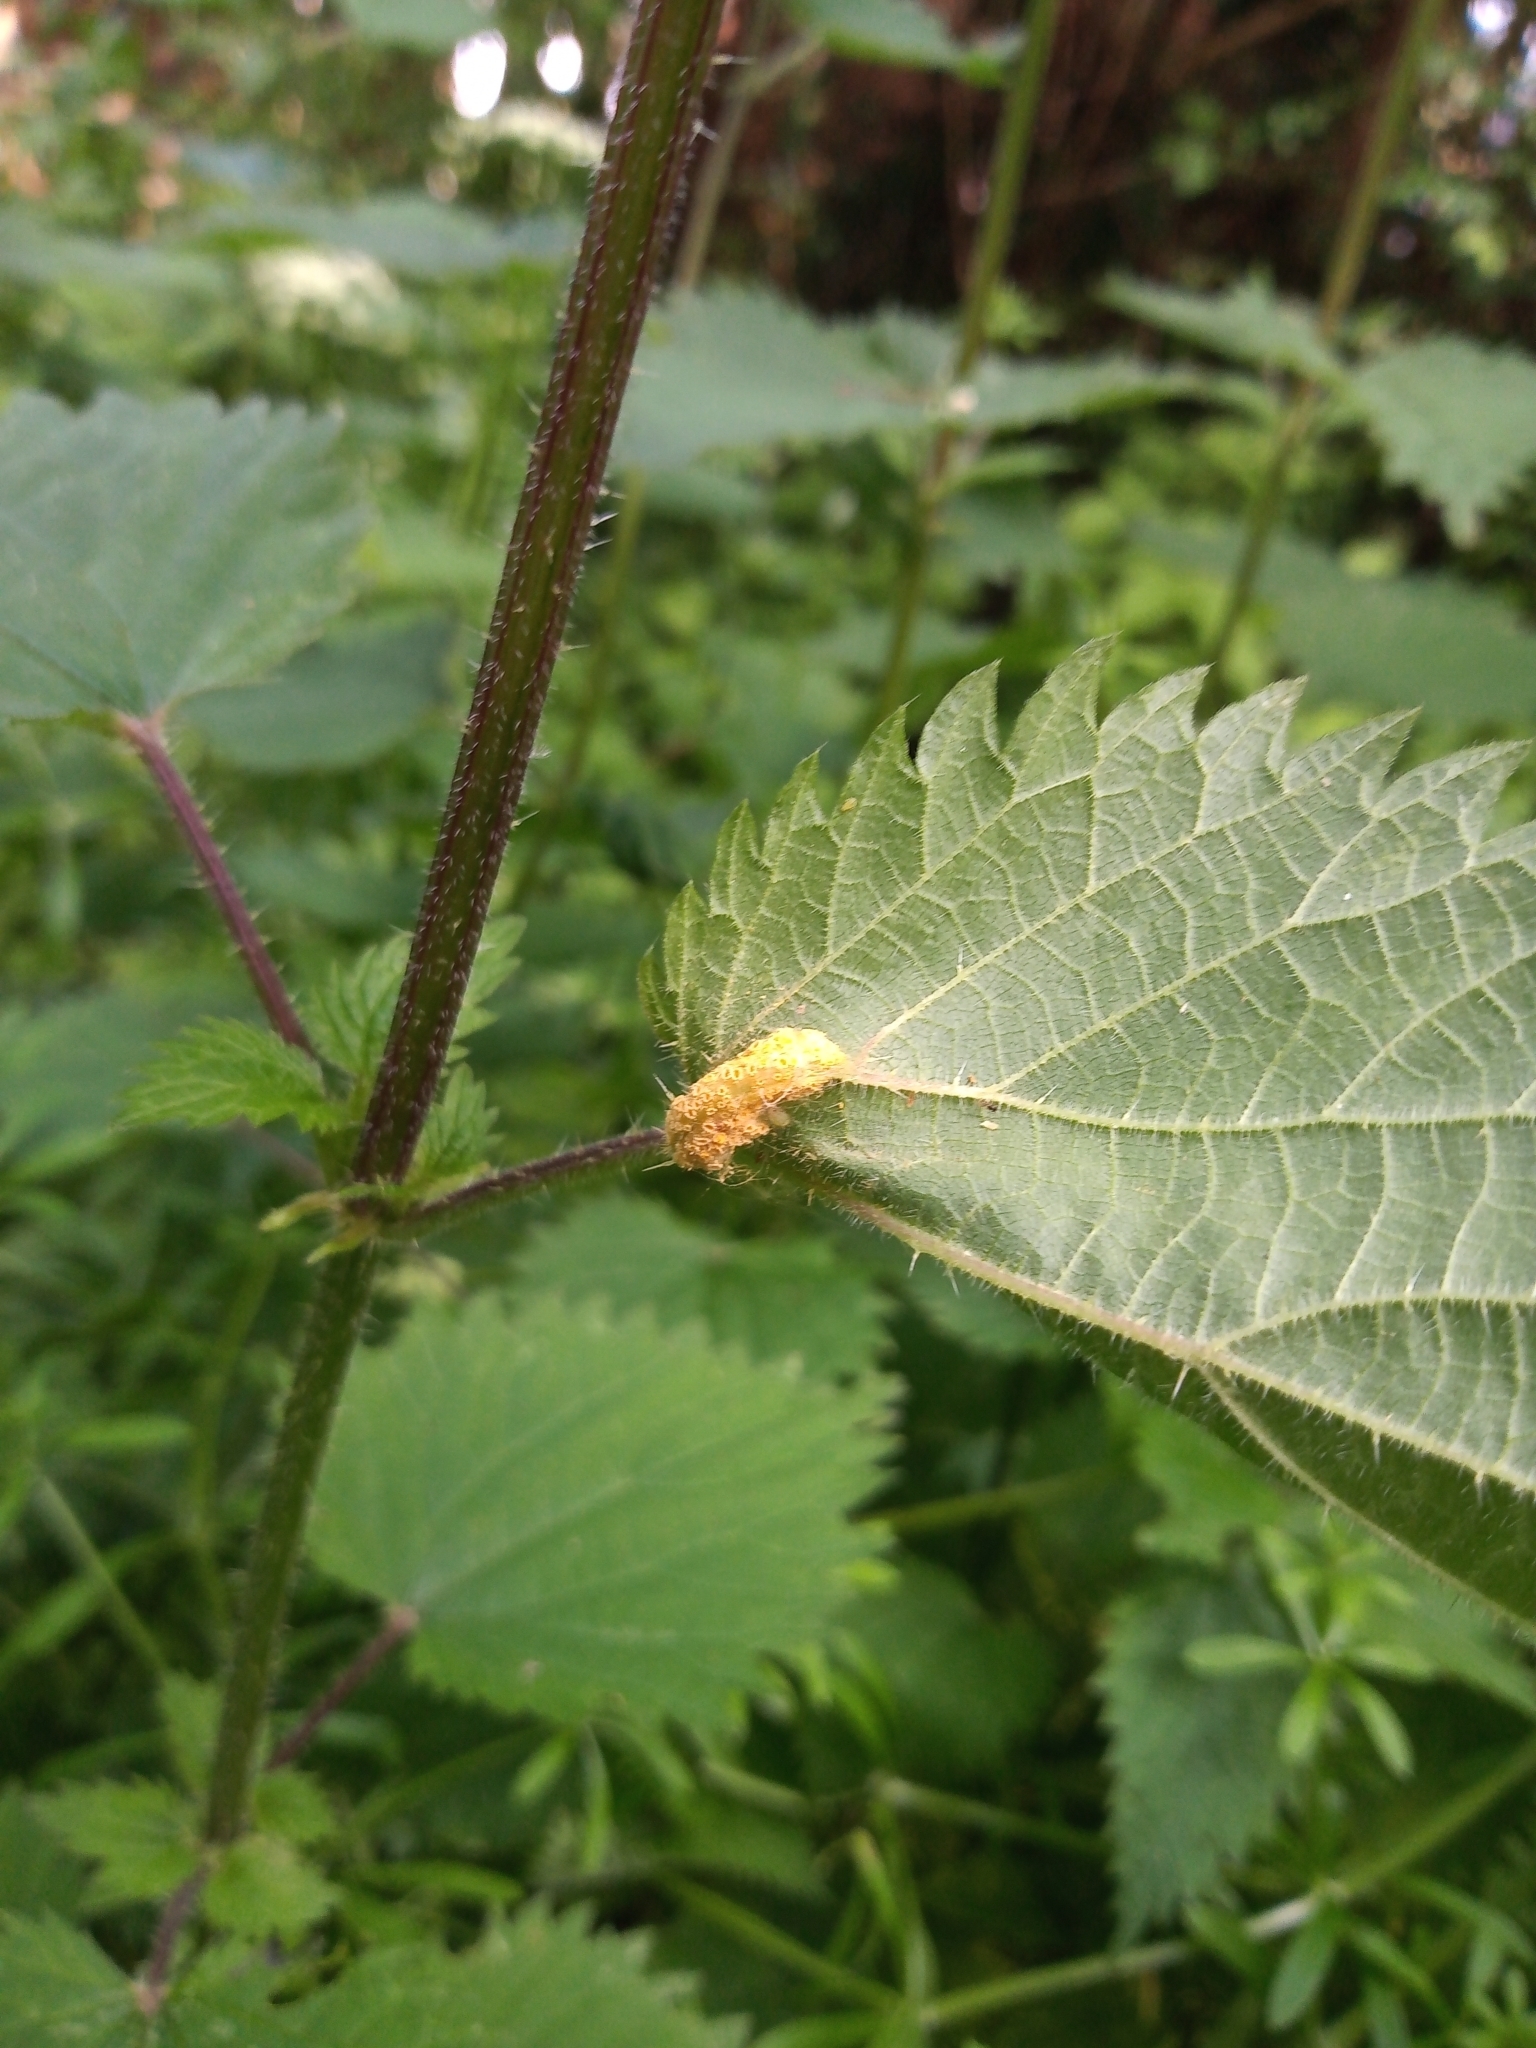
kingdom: Fungi
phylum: Basidiomycota
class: Pucciniomycetes
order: Pucciniales
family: Pucciniaceae
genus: Puccinia
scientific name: Puccinia urticata
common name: Nettle clustercup rust fungus
